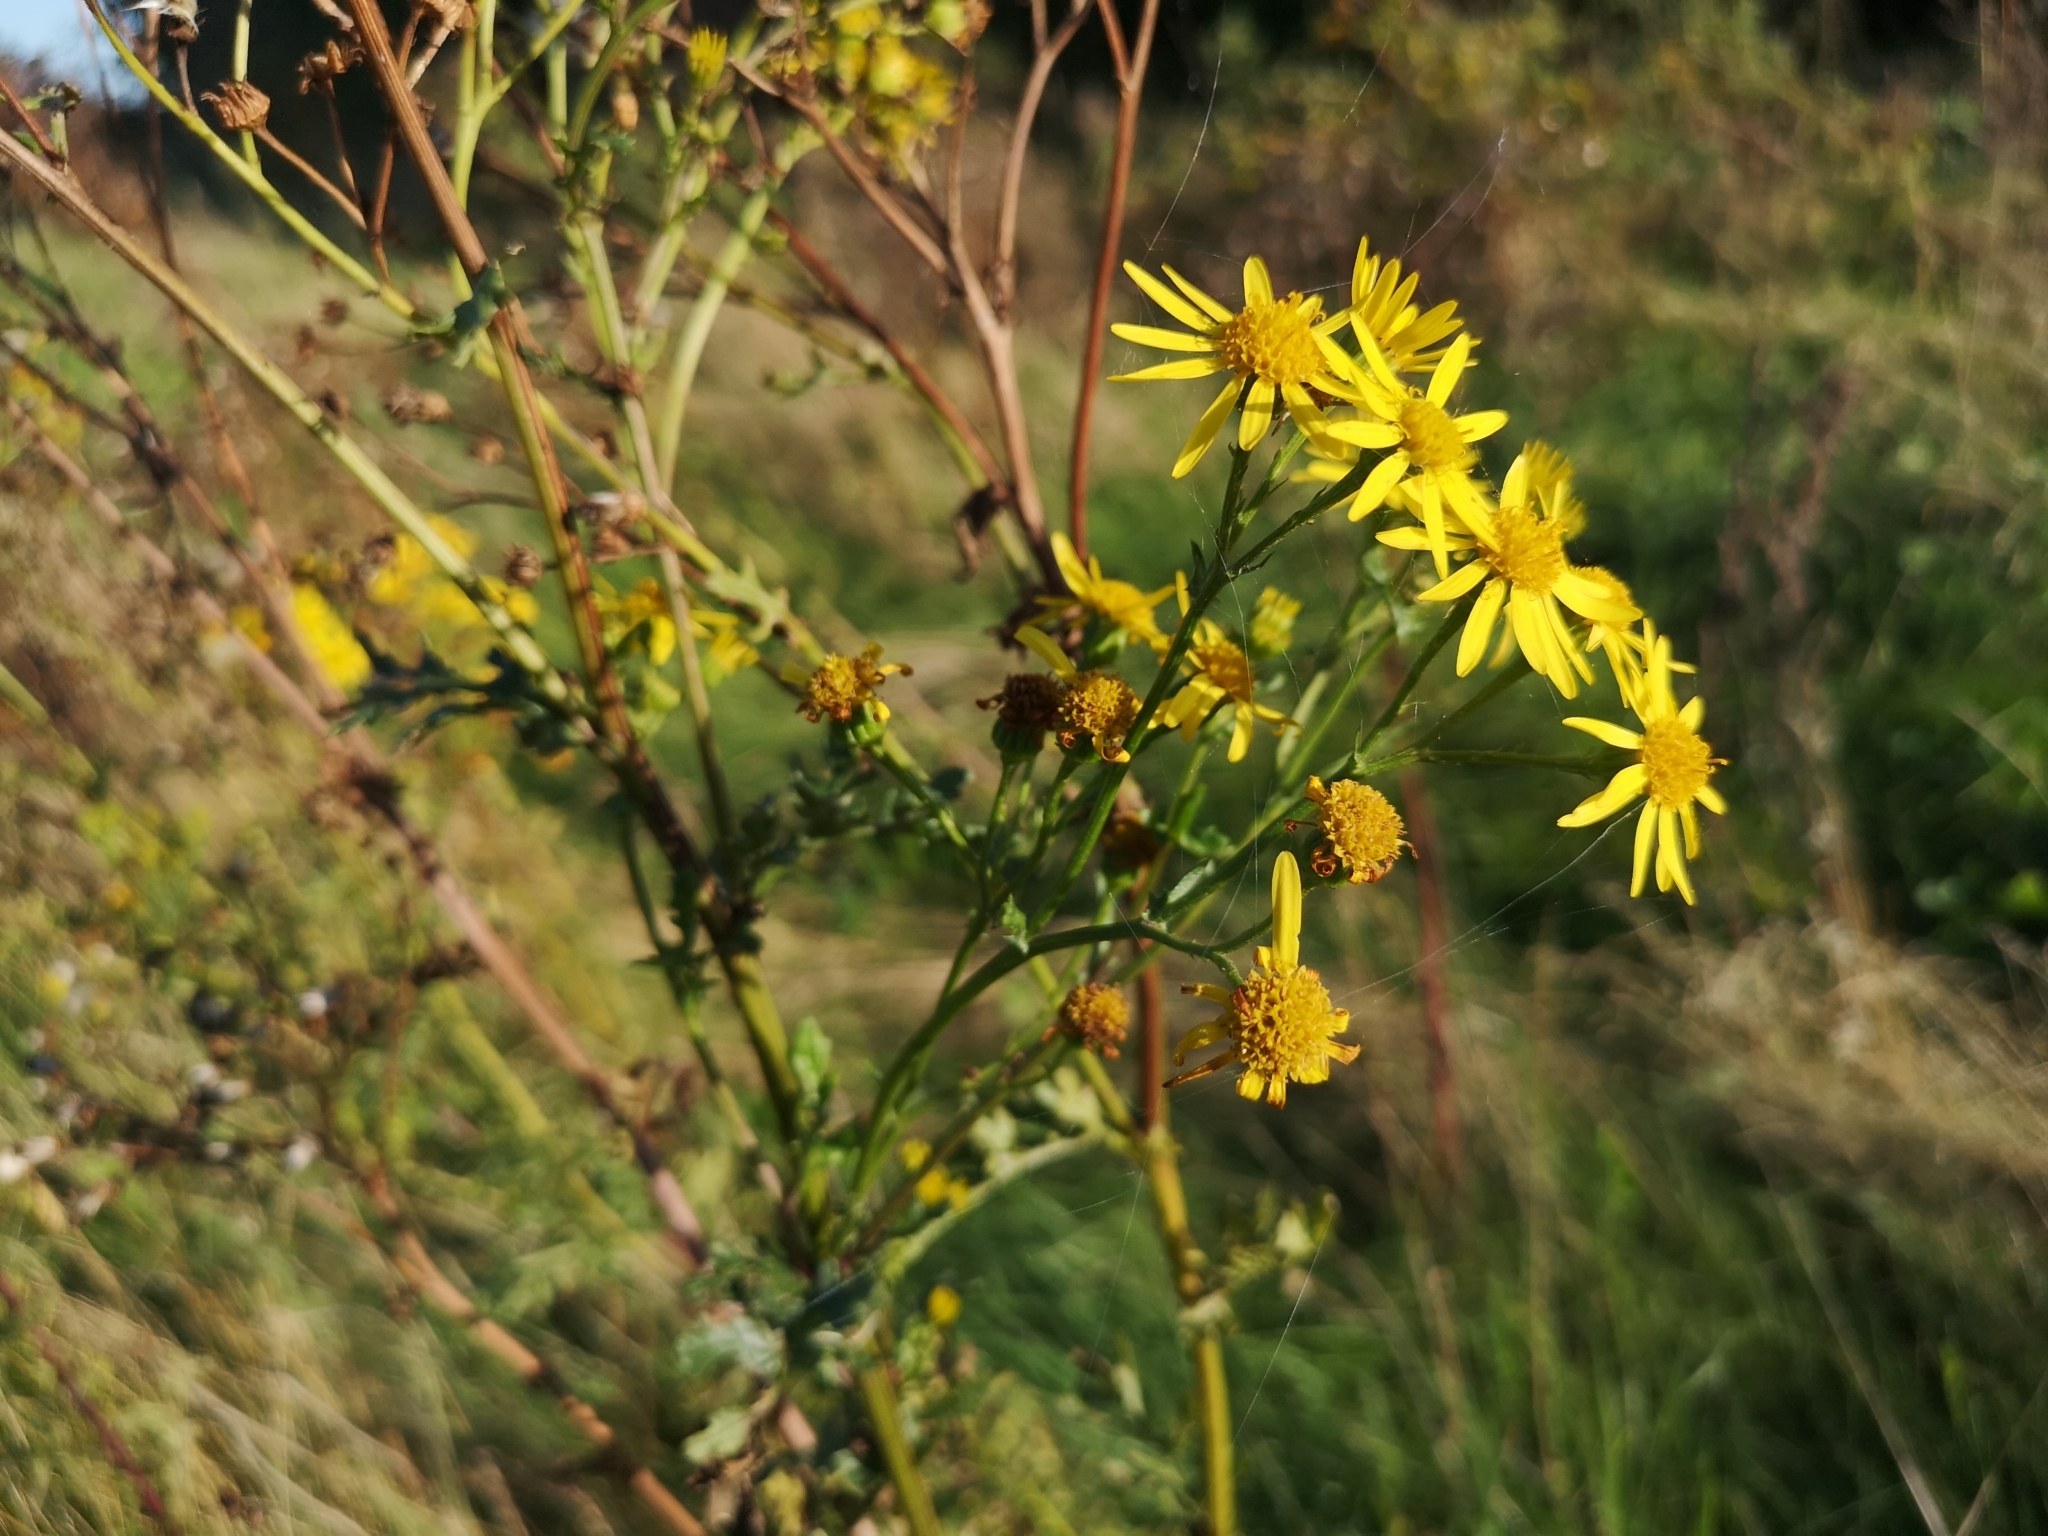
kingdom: Plantae
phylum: Tracheophyta
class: Magnoliopsida
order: Asterales
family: Asteraceae
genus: Jacobaea
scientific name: Jacobaea vulgaris
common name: Stinking willie
